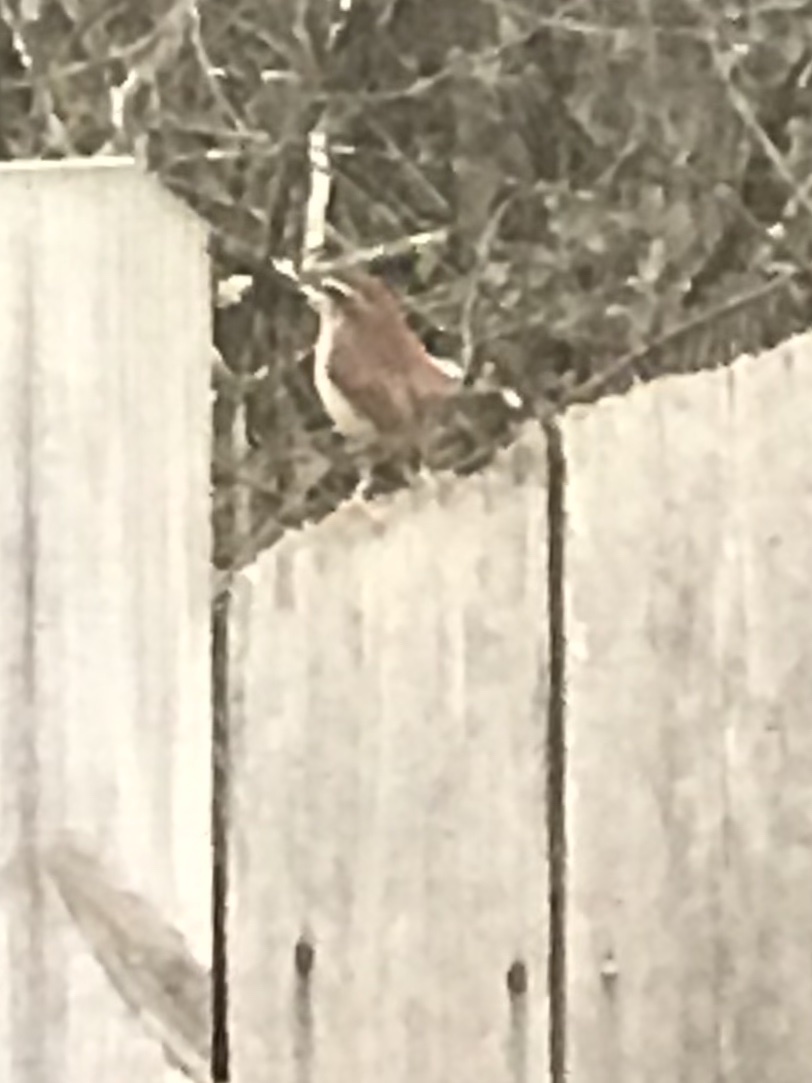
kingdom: Animalia
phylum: Chordata
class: Aves
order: Passeriformes
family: Troglodytidae
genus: Thryothorus
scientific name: Thryothorus ludovicianus
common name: Carolina wren
